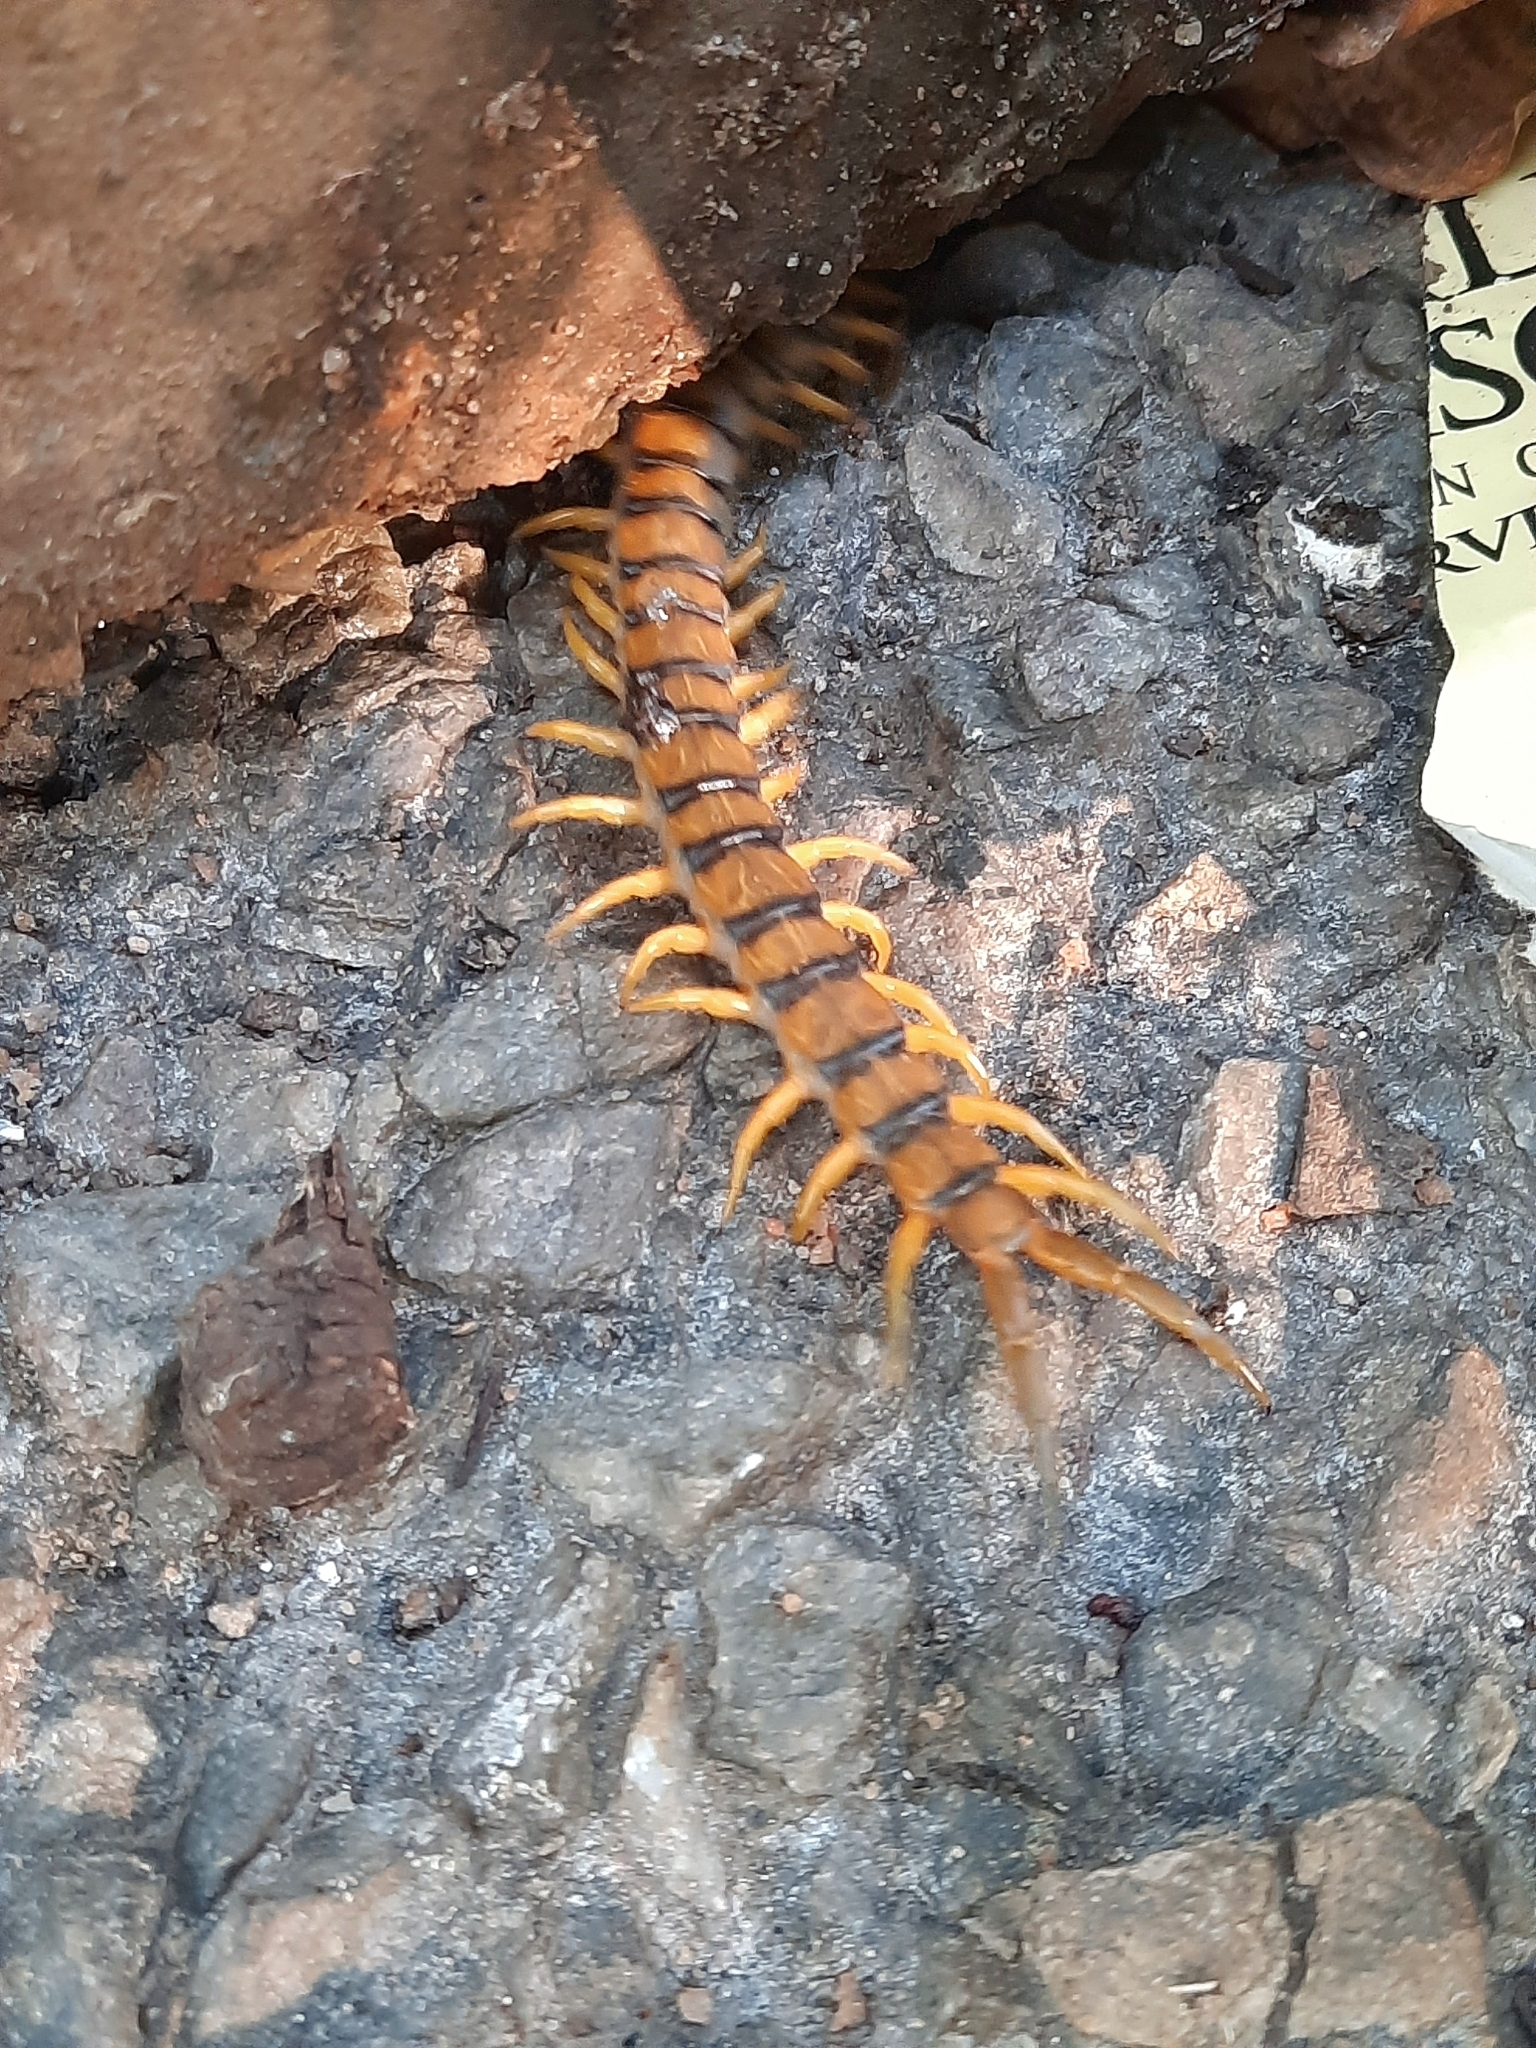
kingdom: Animalia
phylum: Arthropoda
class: Chilopoda
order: Scolopendromorpha
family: Scolopendridae
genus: Scolopendra
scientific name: Scolopendra morsitans
